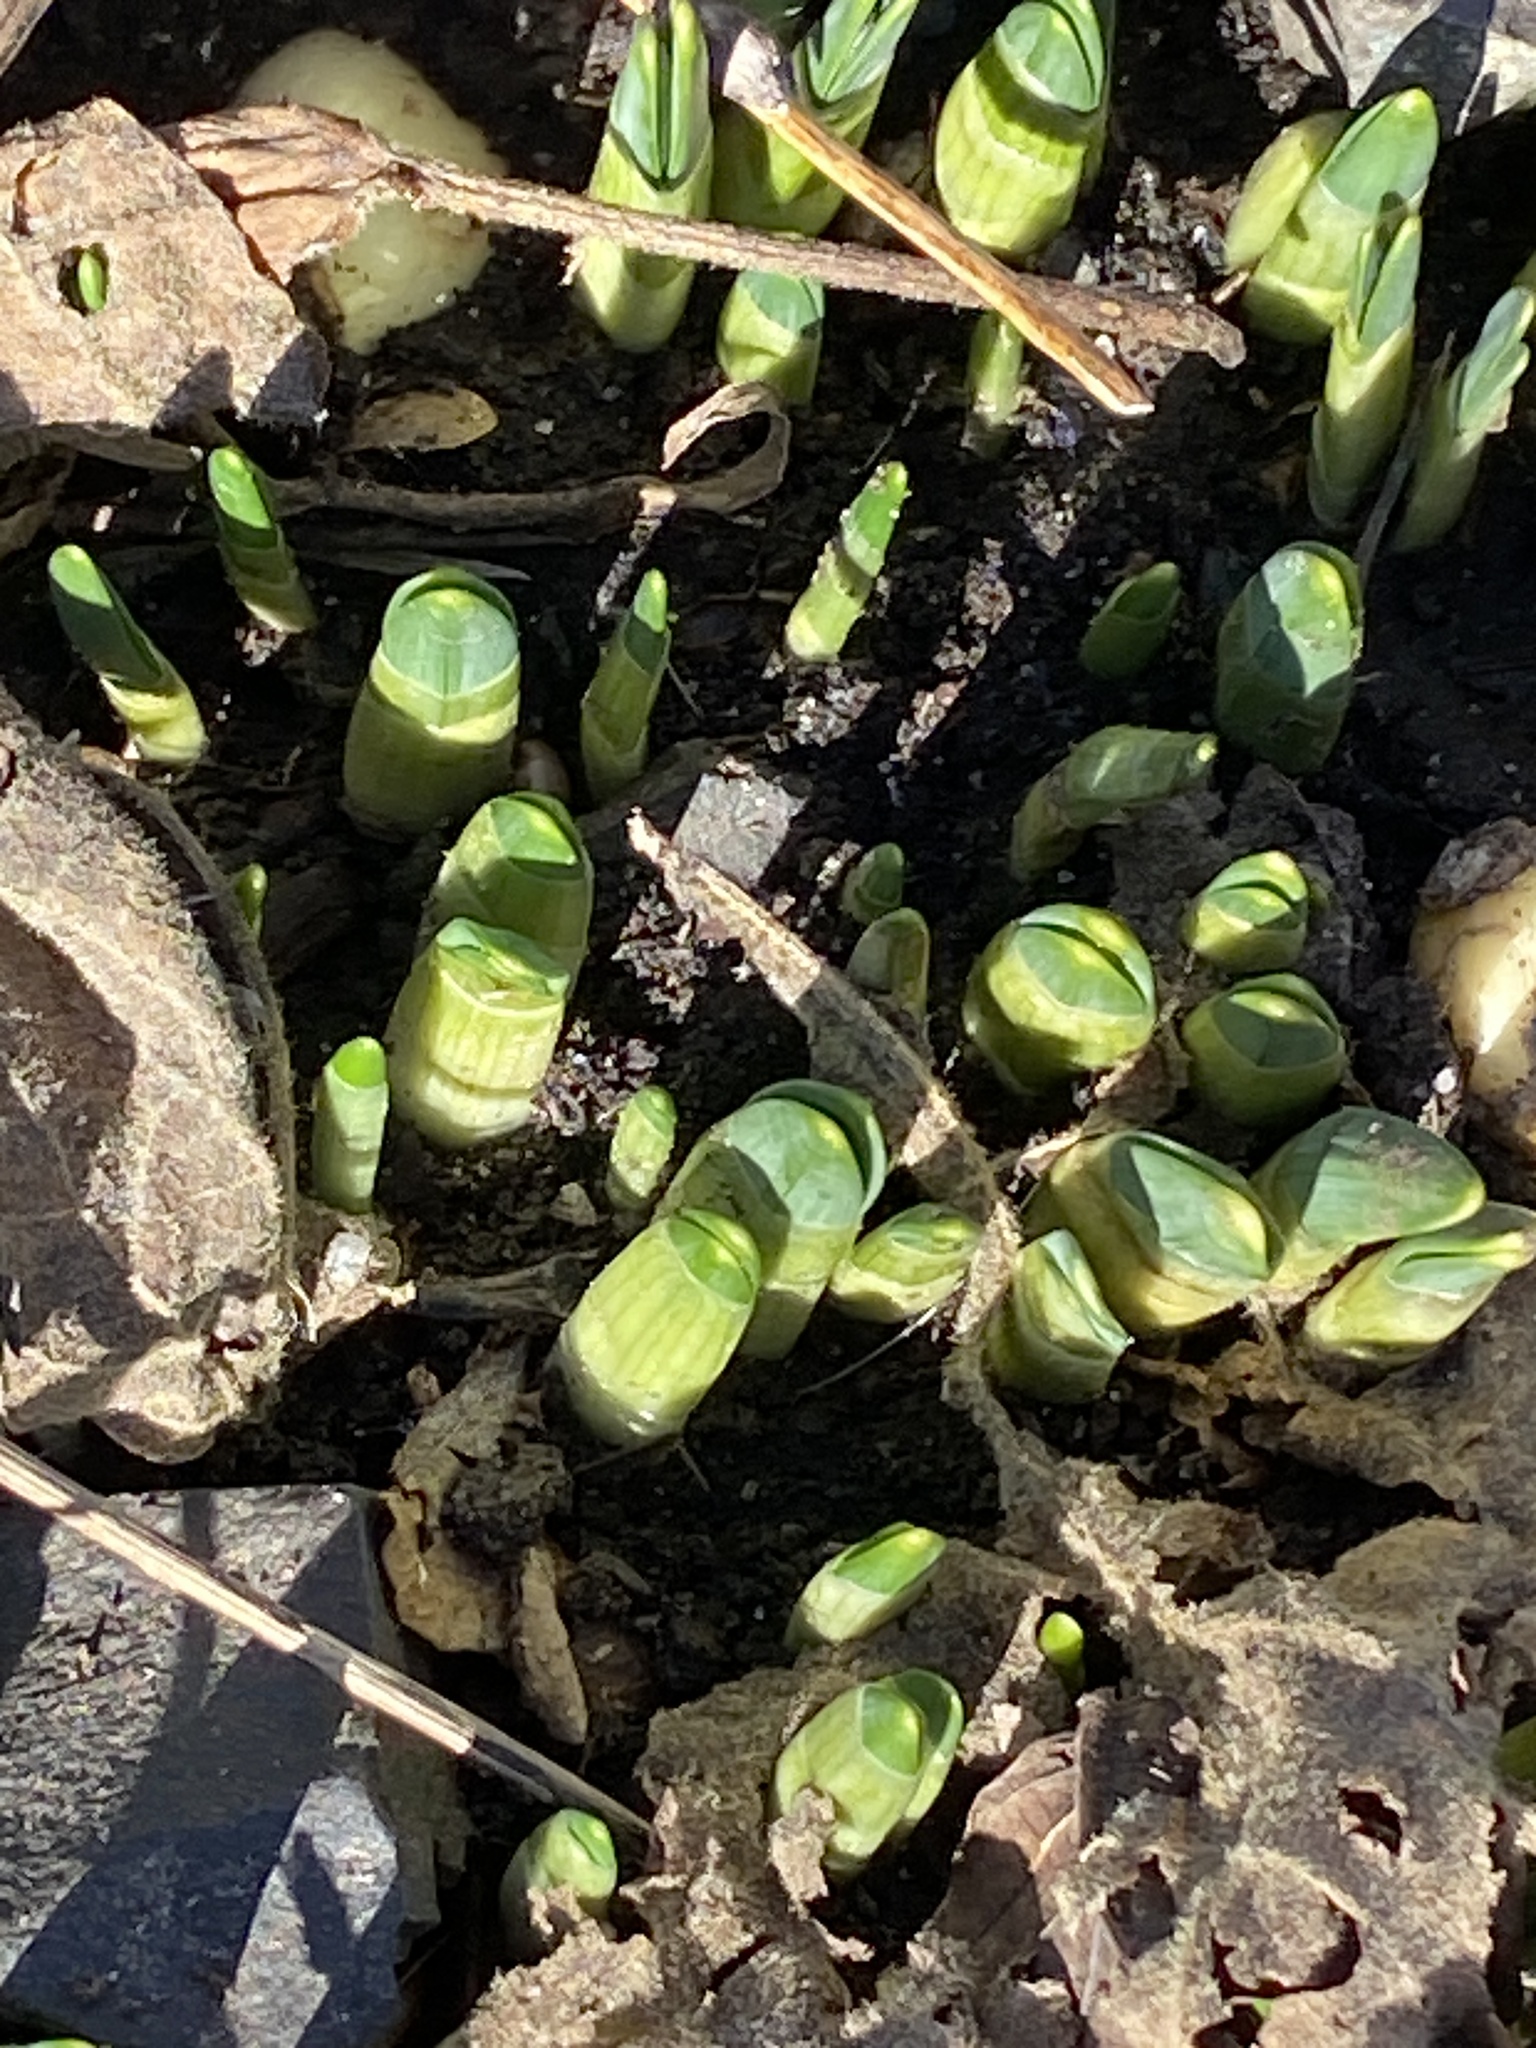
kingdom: Plantae
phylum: Tracheophyta
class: Liliopsida
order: Asparagales
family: Amaryllidaceae
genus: Narcissus
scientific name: Narcissus
